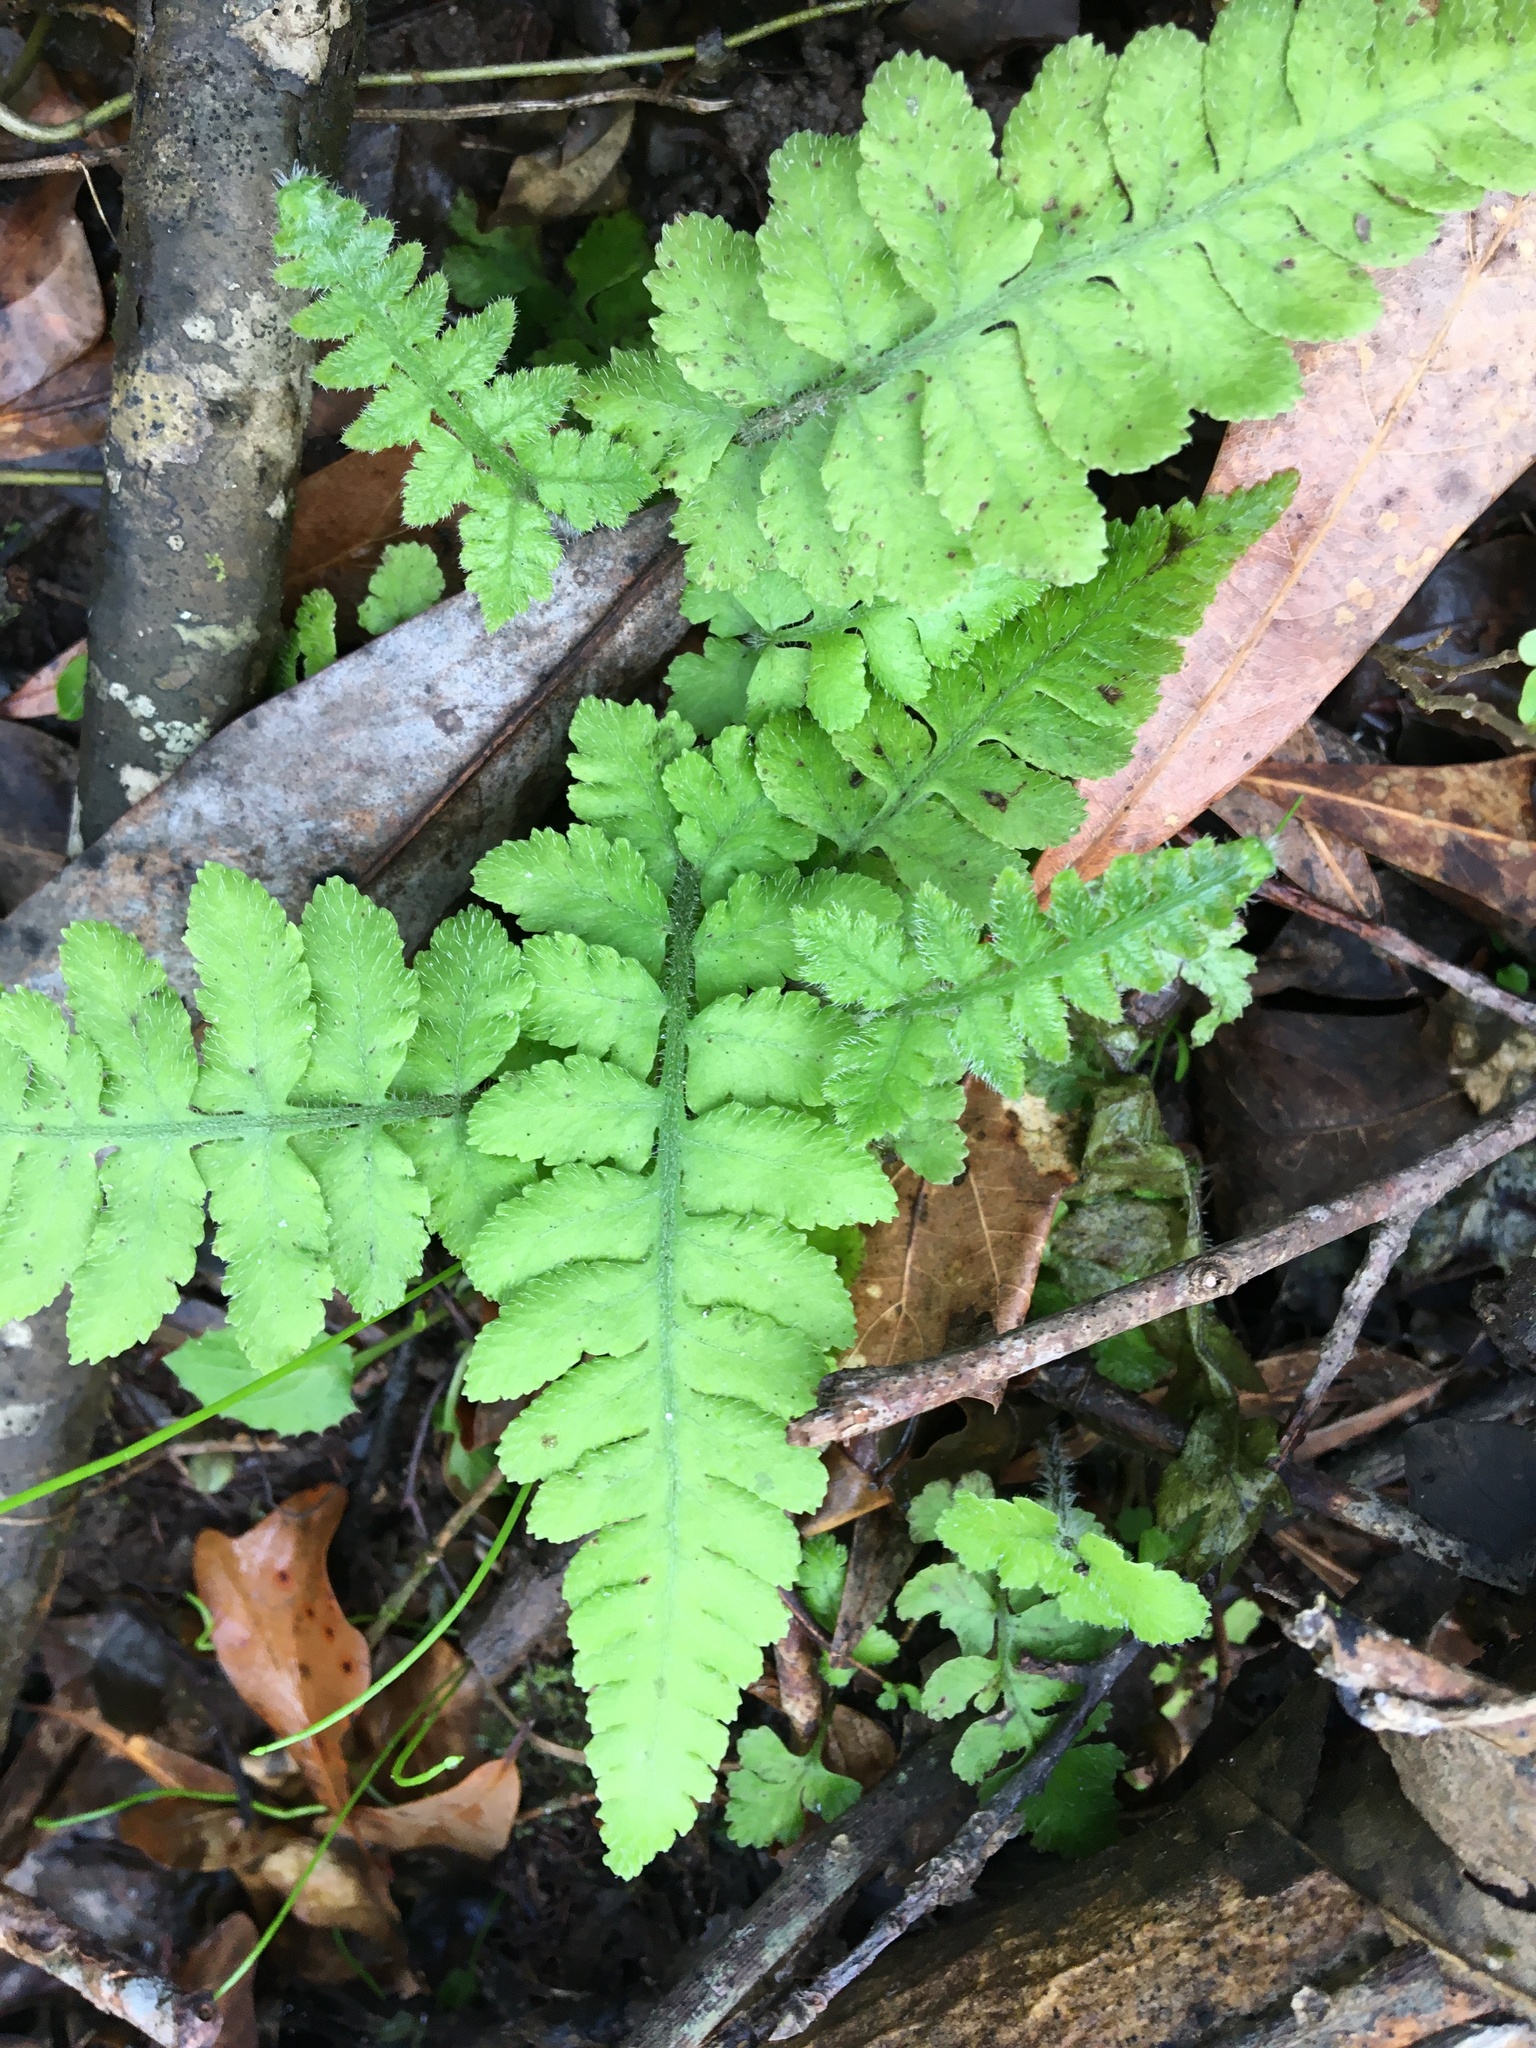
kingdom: Plantae
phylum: Tracheophyta
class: Polypodiopsida
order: Polypodiales
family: Athyriaceae
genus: Deparia
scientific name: Deparia petersenii
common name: Japanese false spleenwort
